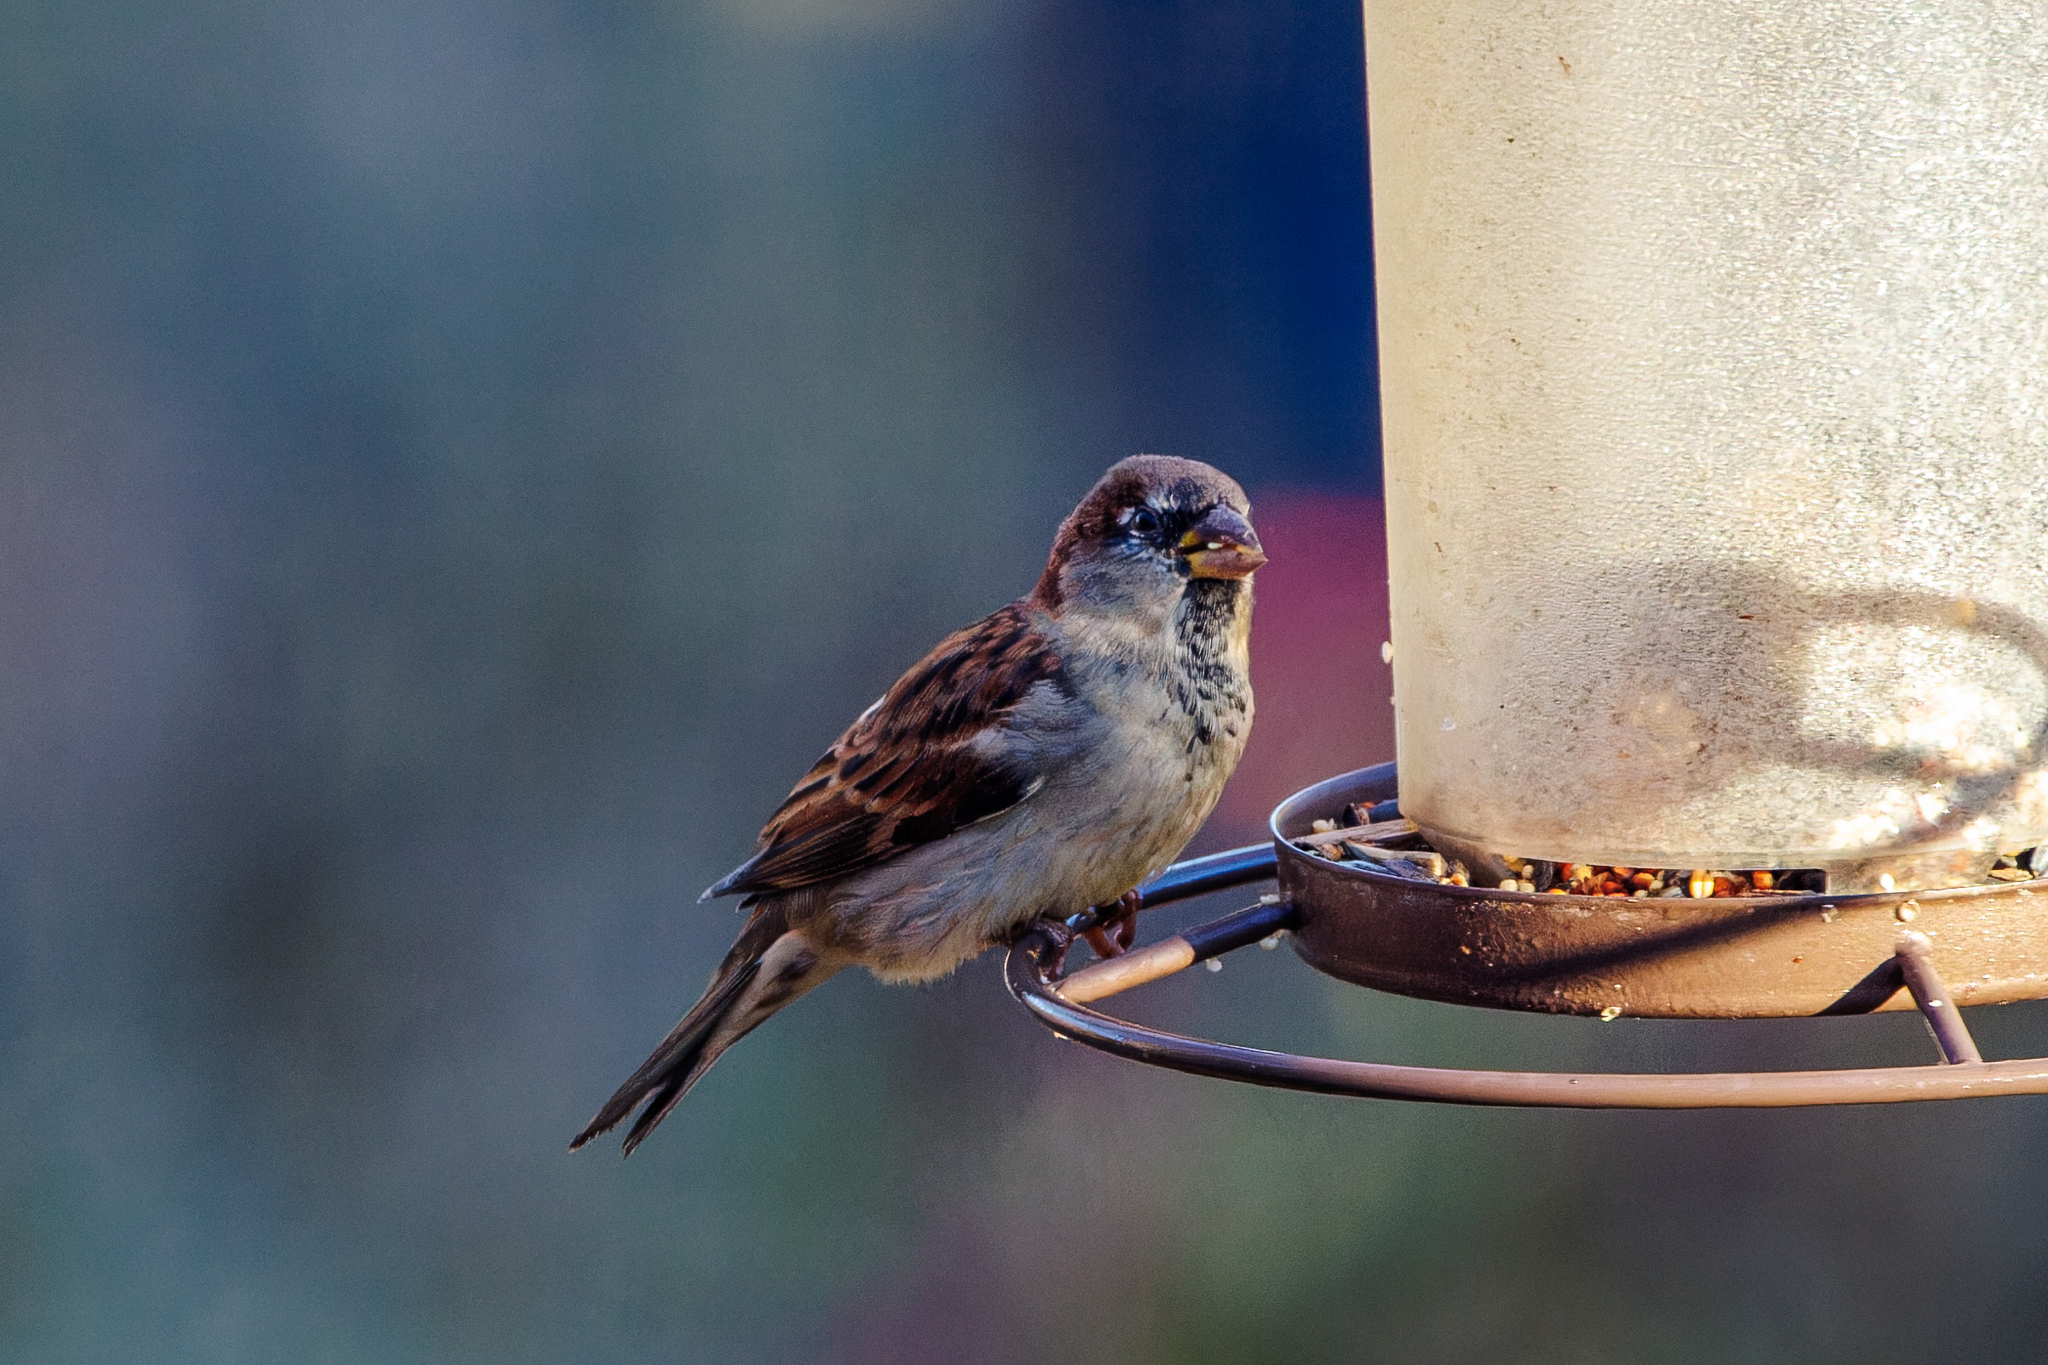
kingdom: Animalia
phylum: Chordata
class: Aves
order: Passeriformes
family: Passeridae
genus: Passer
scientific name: Passer domesticus
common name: House sparrow
